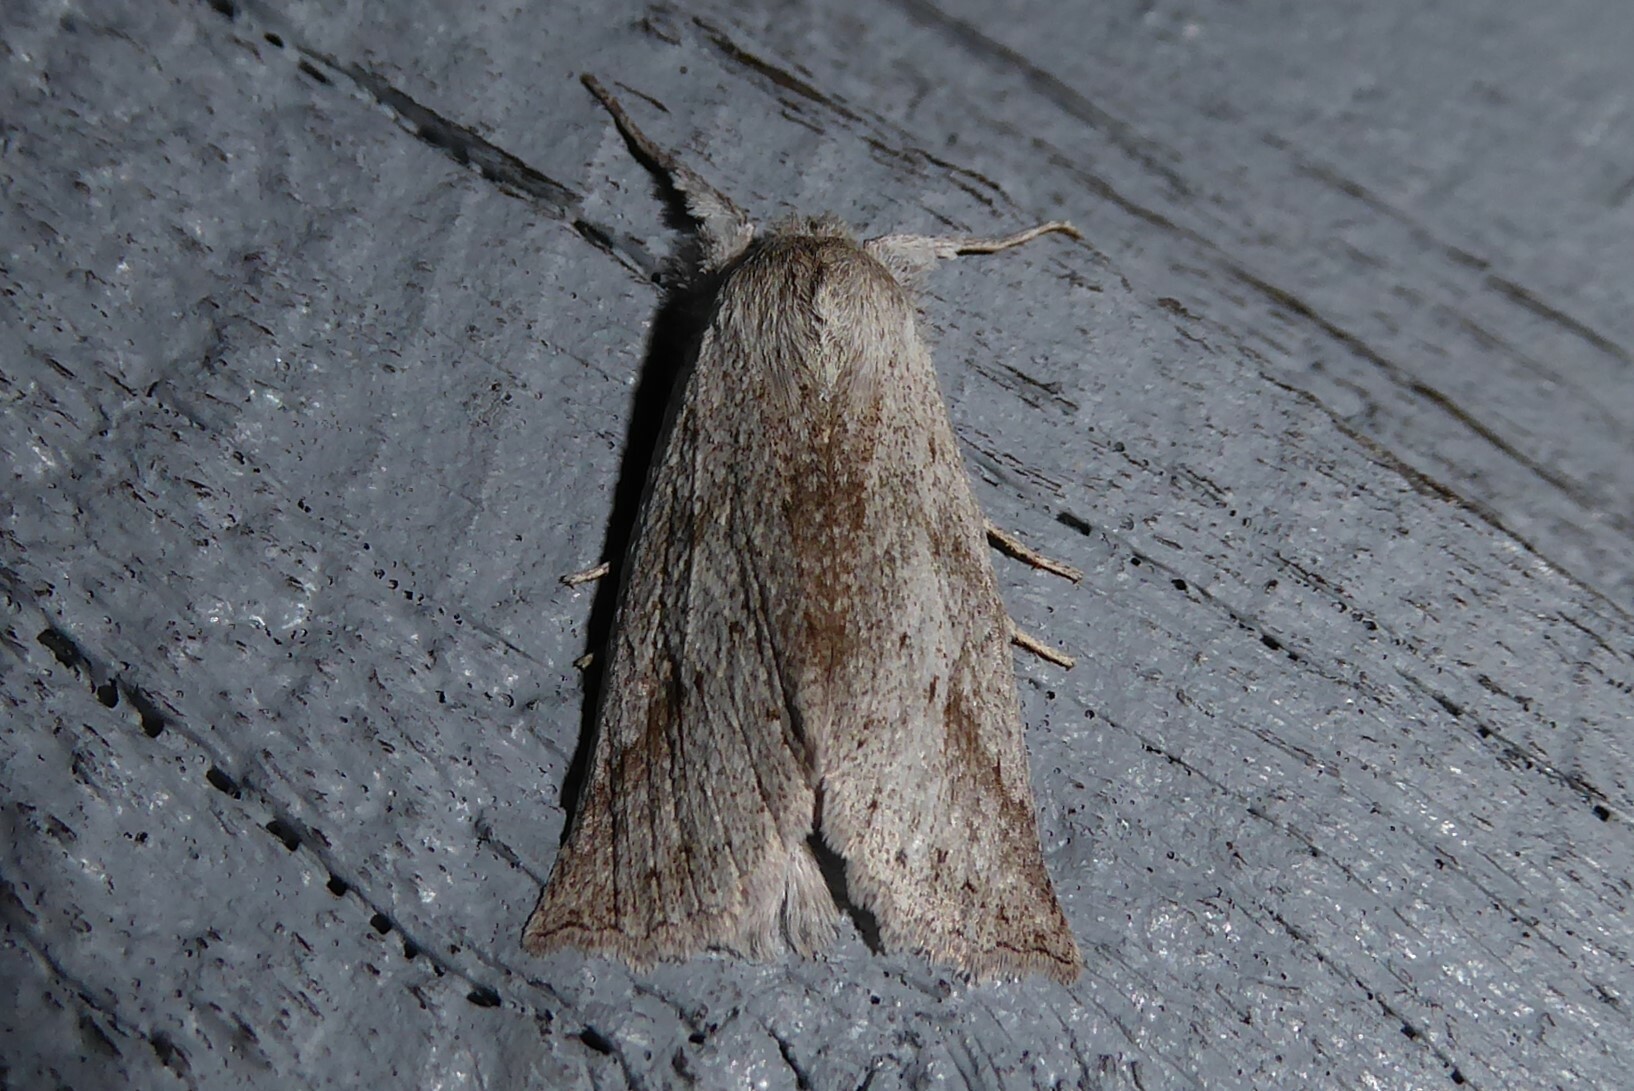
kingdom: Animalia
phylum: Arthropoda
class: Insecta
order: Lepidoptera
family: Geometridae
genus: Declana
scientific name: Declana leptomera
